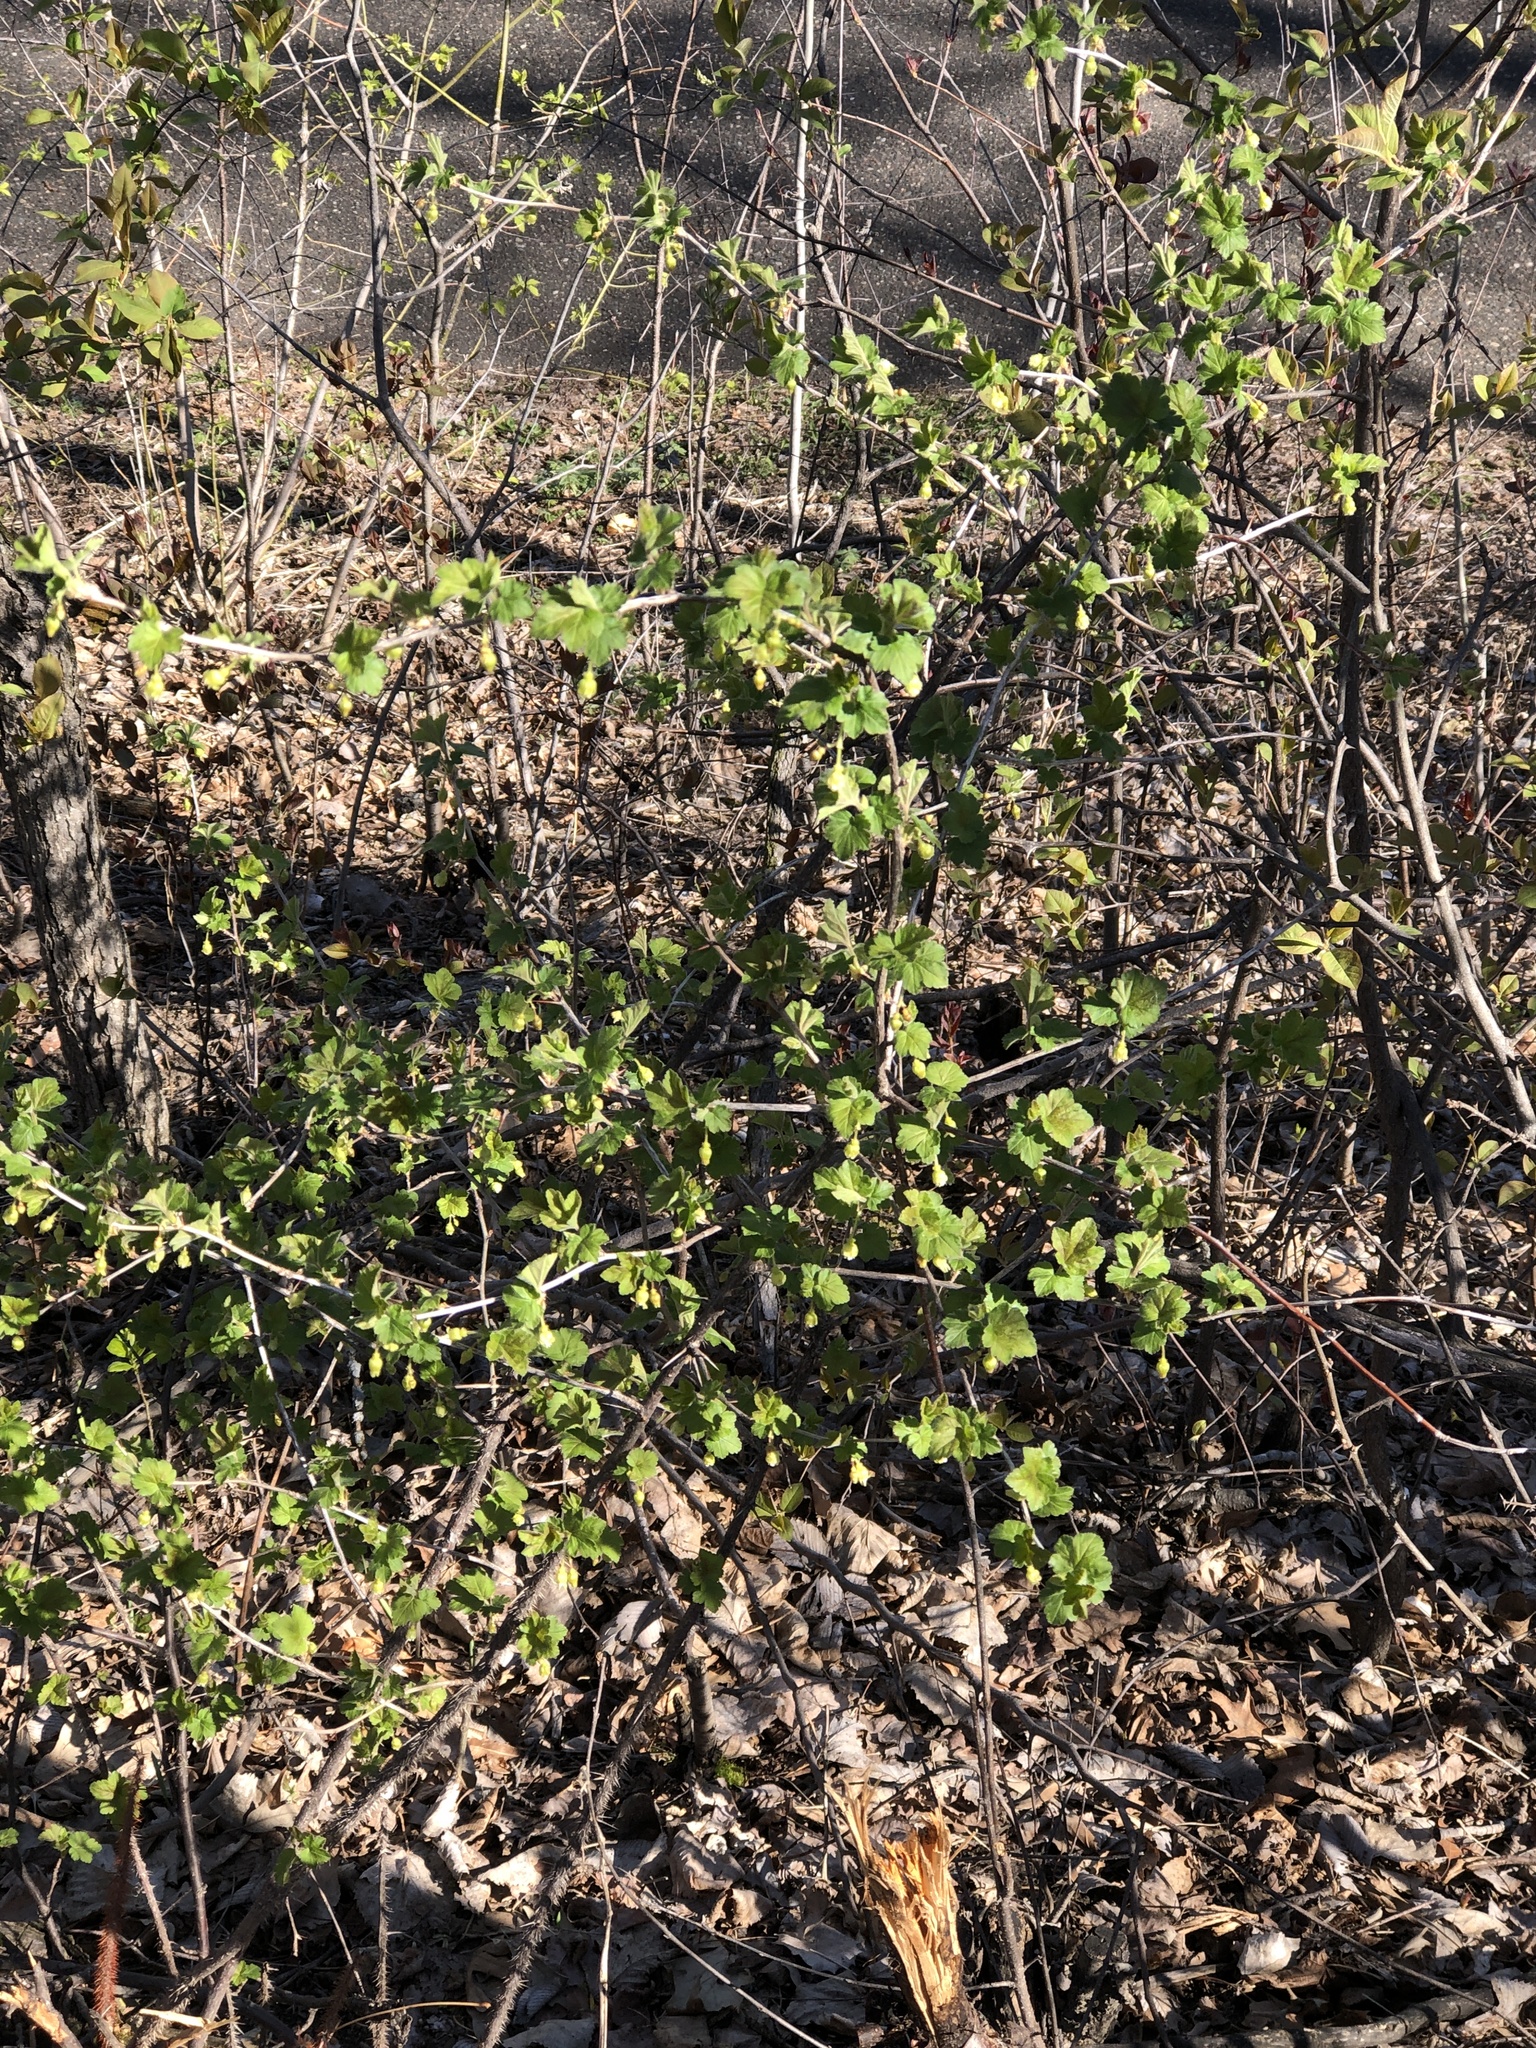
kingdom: Plantae
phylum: Tracheophyta
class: Magnoliopsida
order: Saxifragales
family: Grossulariaceae
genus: Ribes
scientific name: Ribes cynosbati
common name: American gooseberry
